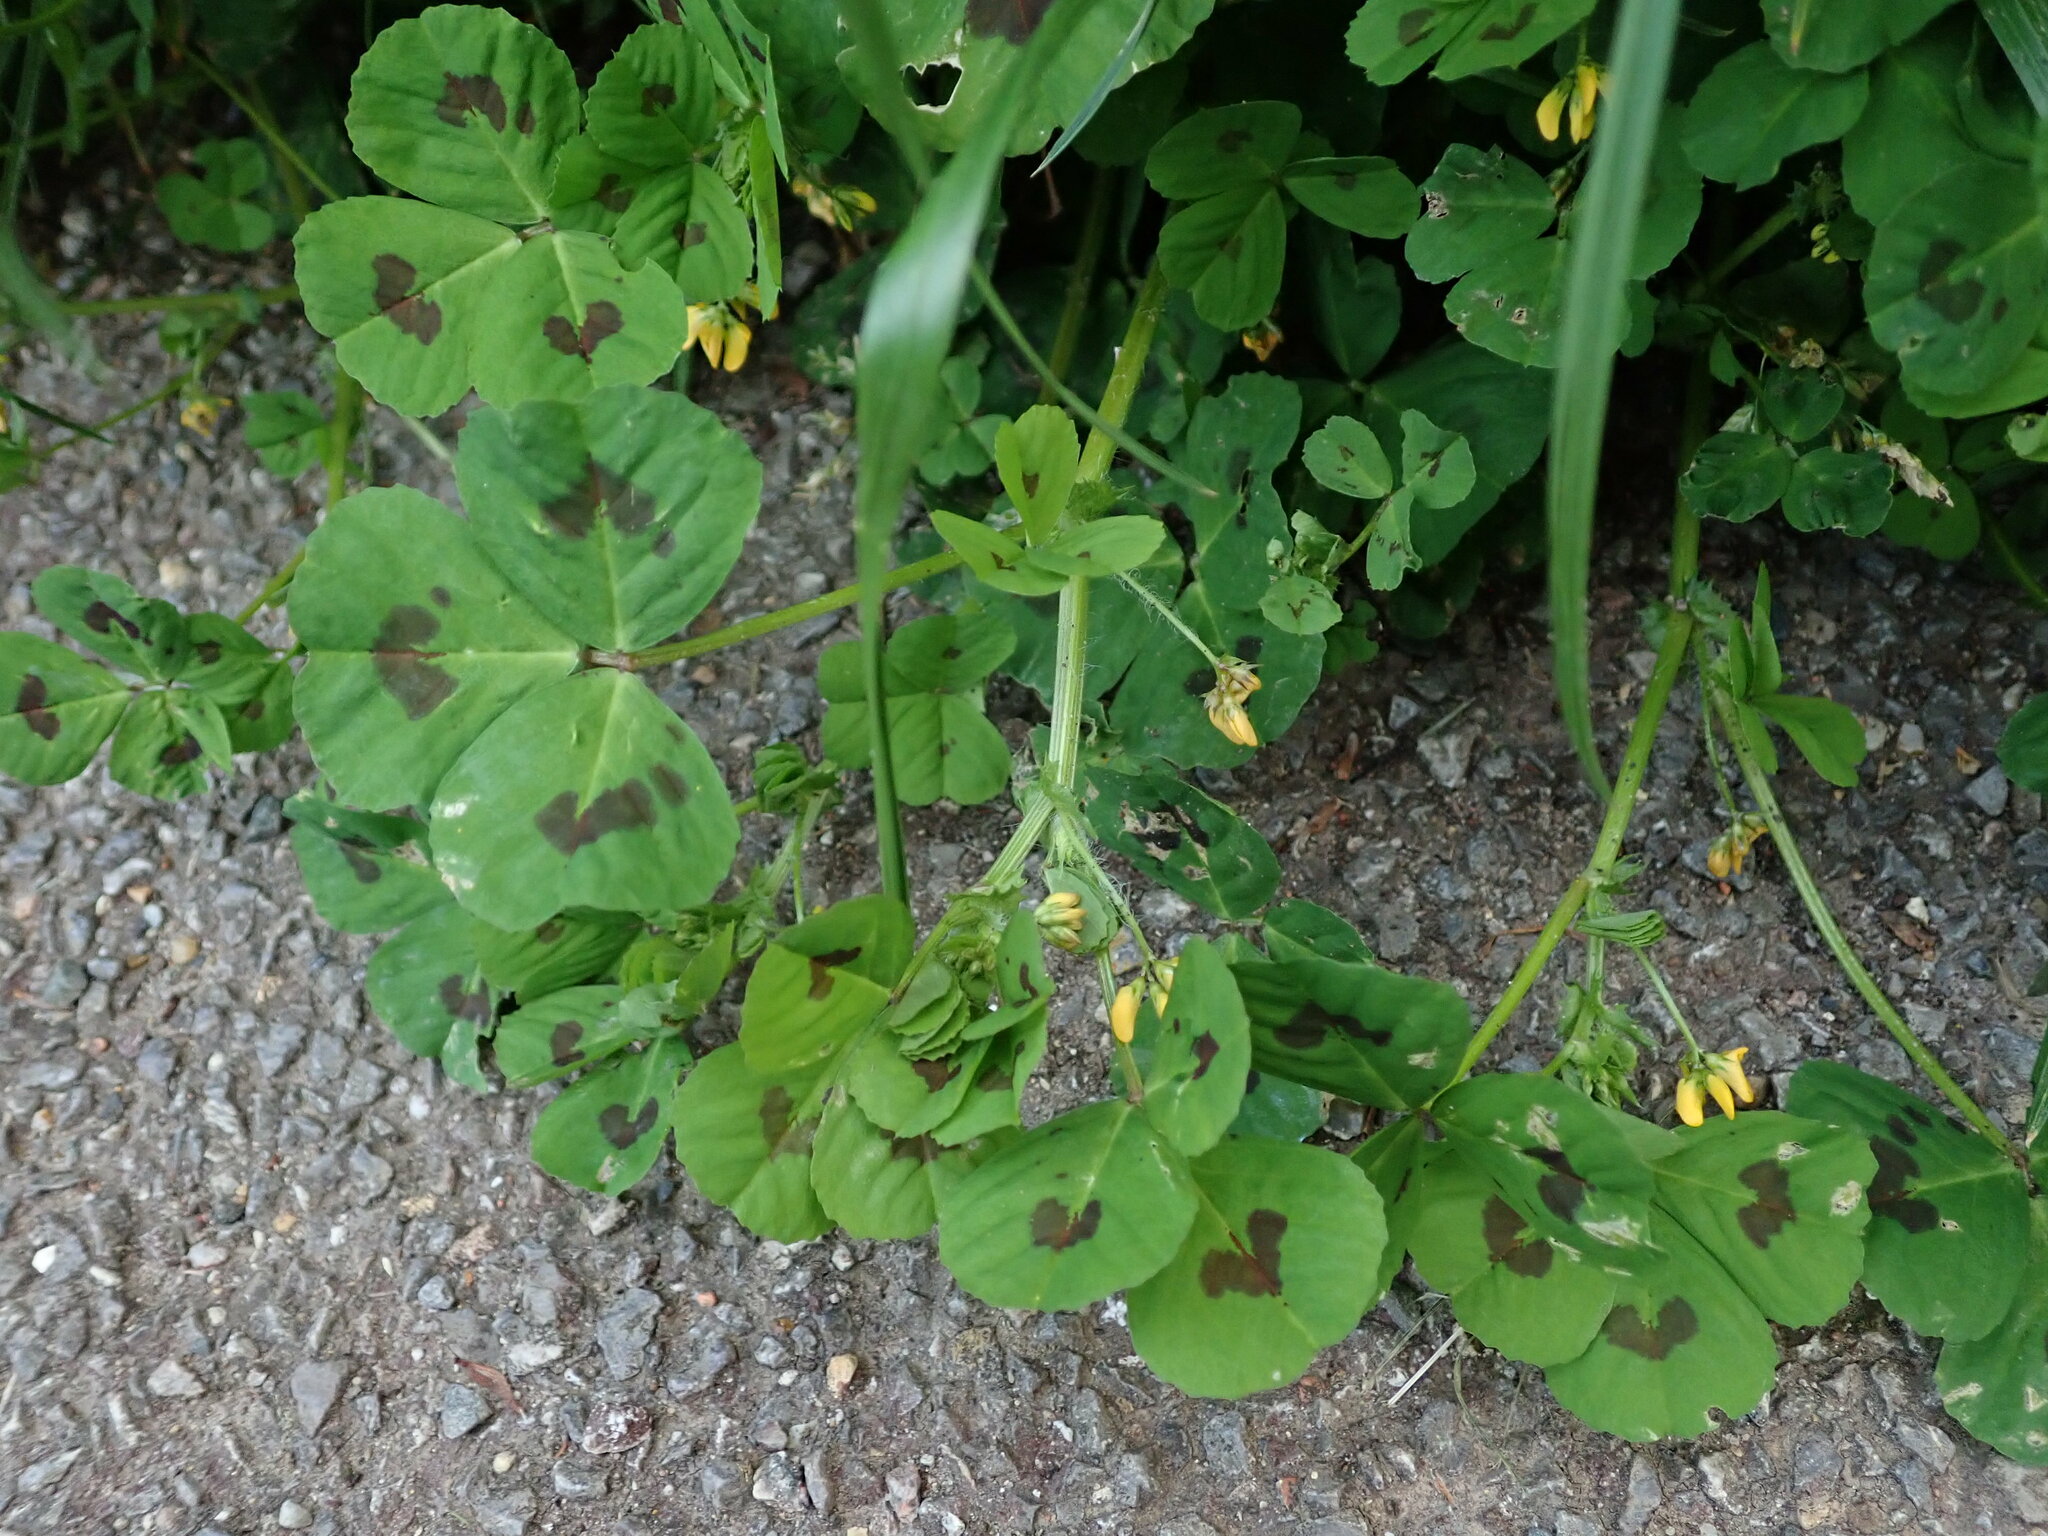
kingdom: Plantae
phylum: Tracheophyta
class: Magnoliopsida
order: Fabales
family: Fabaceae
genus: Medicago
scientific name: Medicago arabica
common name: Spotted medick
